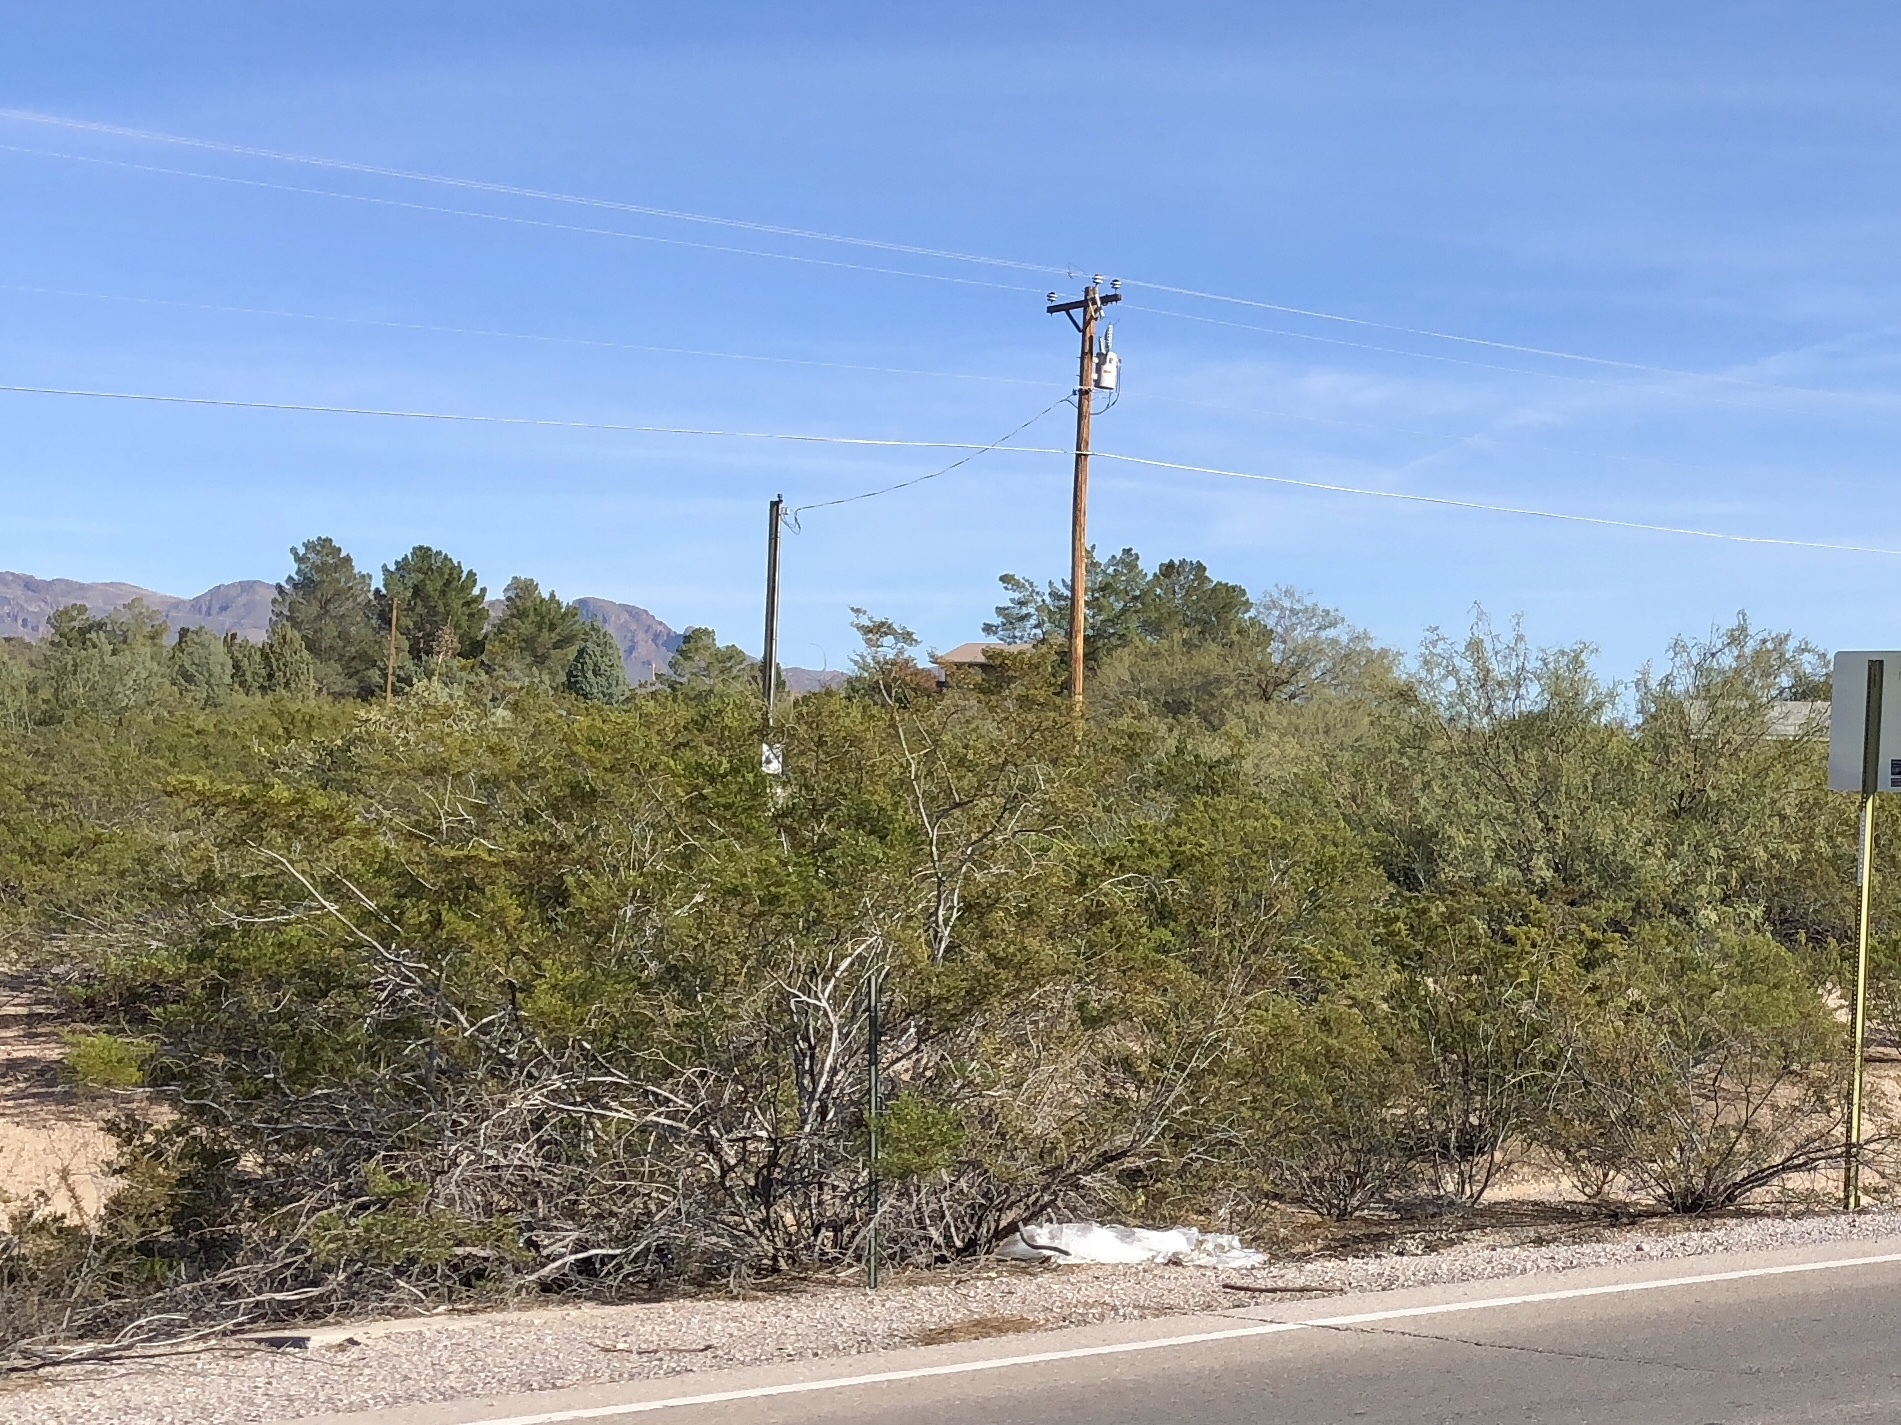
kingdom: Plantae
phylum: Tracheophyta
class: Magnoliopsida
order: Zygophyllales
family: Zygophyllaceae
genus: Larrea
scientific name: Larrea tridentata
